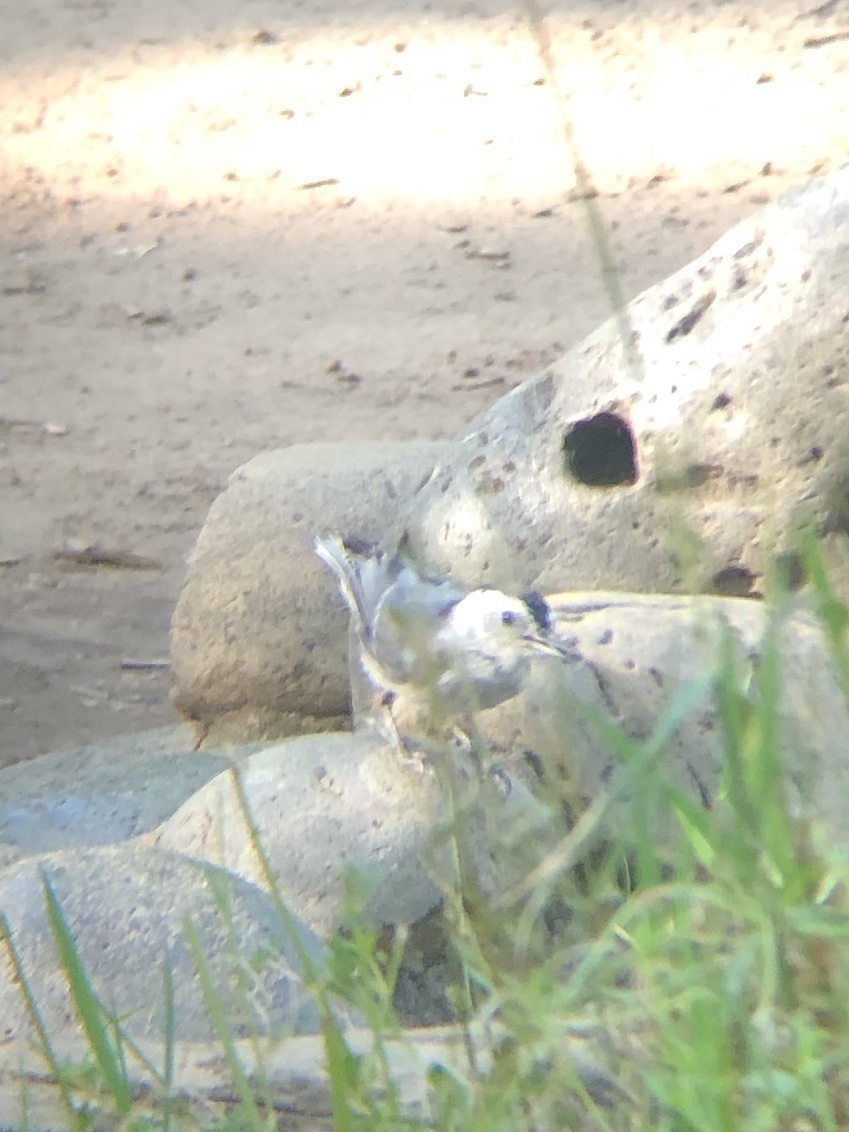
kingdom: Animalia
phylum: Chordata
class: Aves
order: Passeriformes
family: Sittidae
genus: Sitta
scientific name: Sitta carolinensis
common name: White-breasted nuthatch
